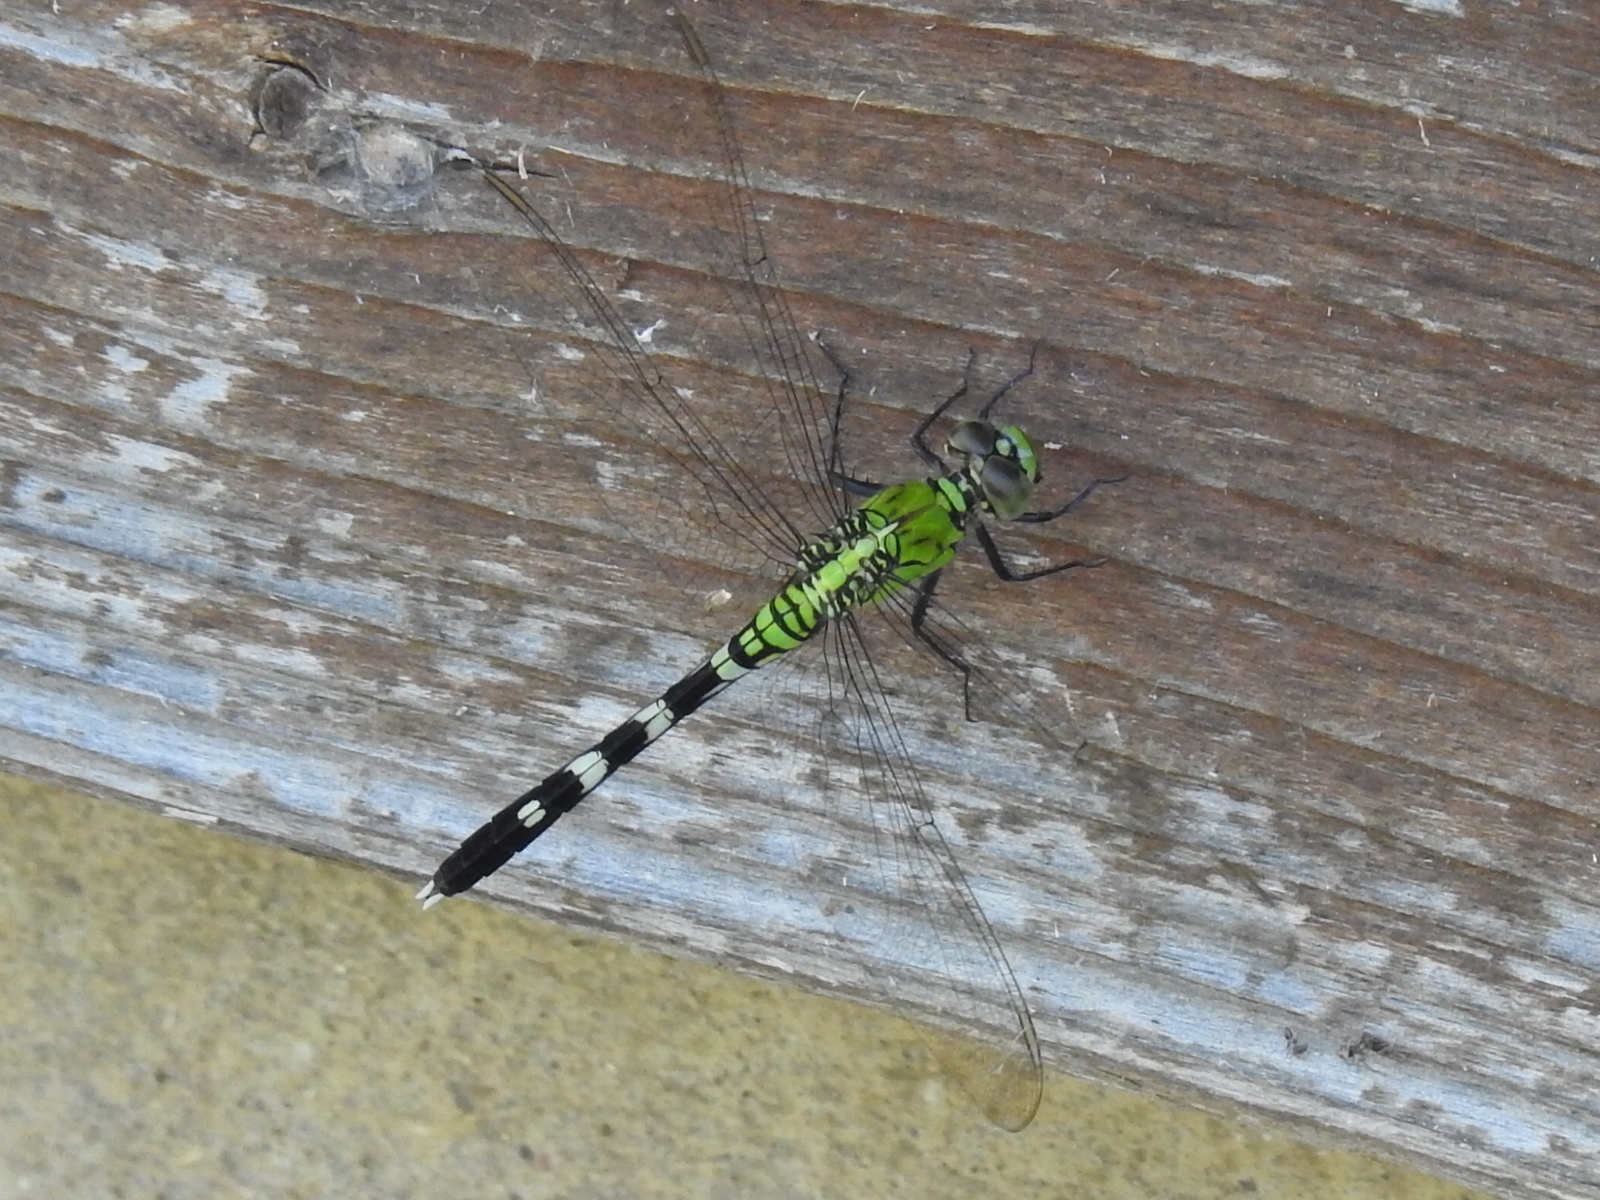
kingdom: Animalia
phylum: Arthropoda
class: Insecta
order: Odonata
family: Libellulidae
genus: Erythemis
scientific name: Erythemis simplicicollis
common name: Eastern pondhawk
